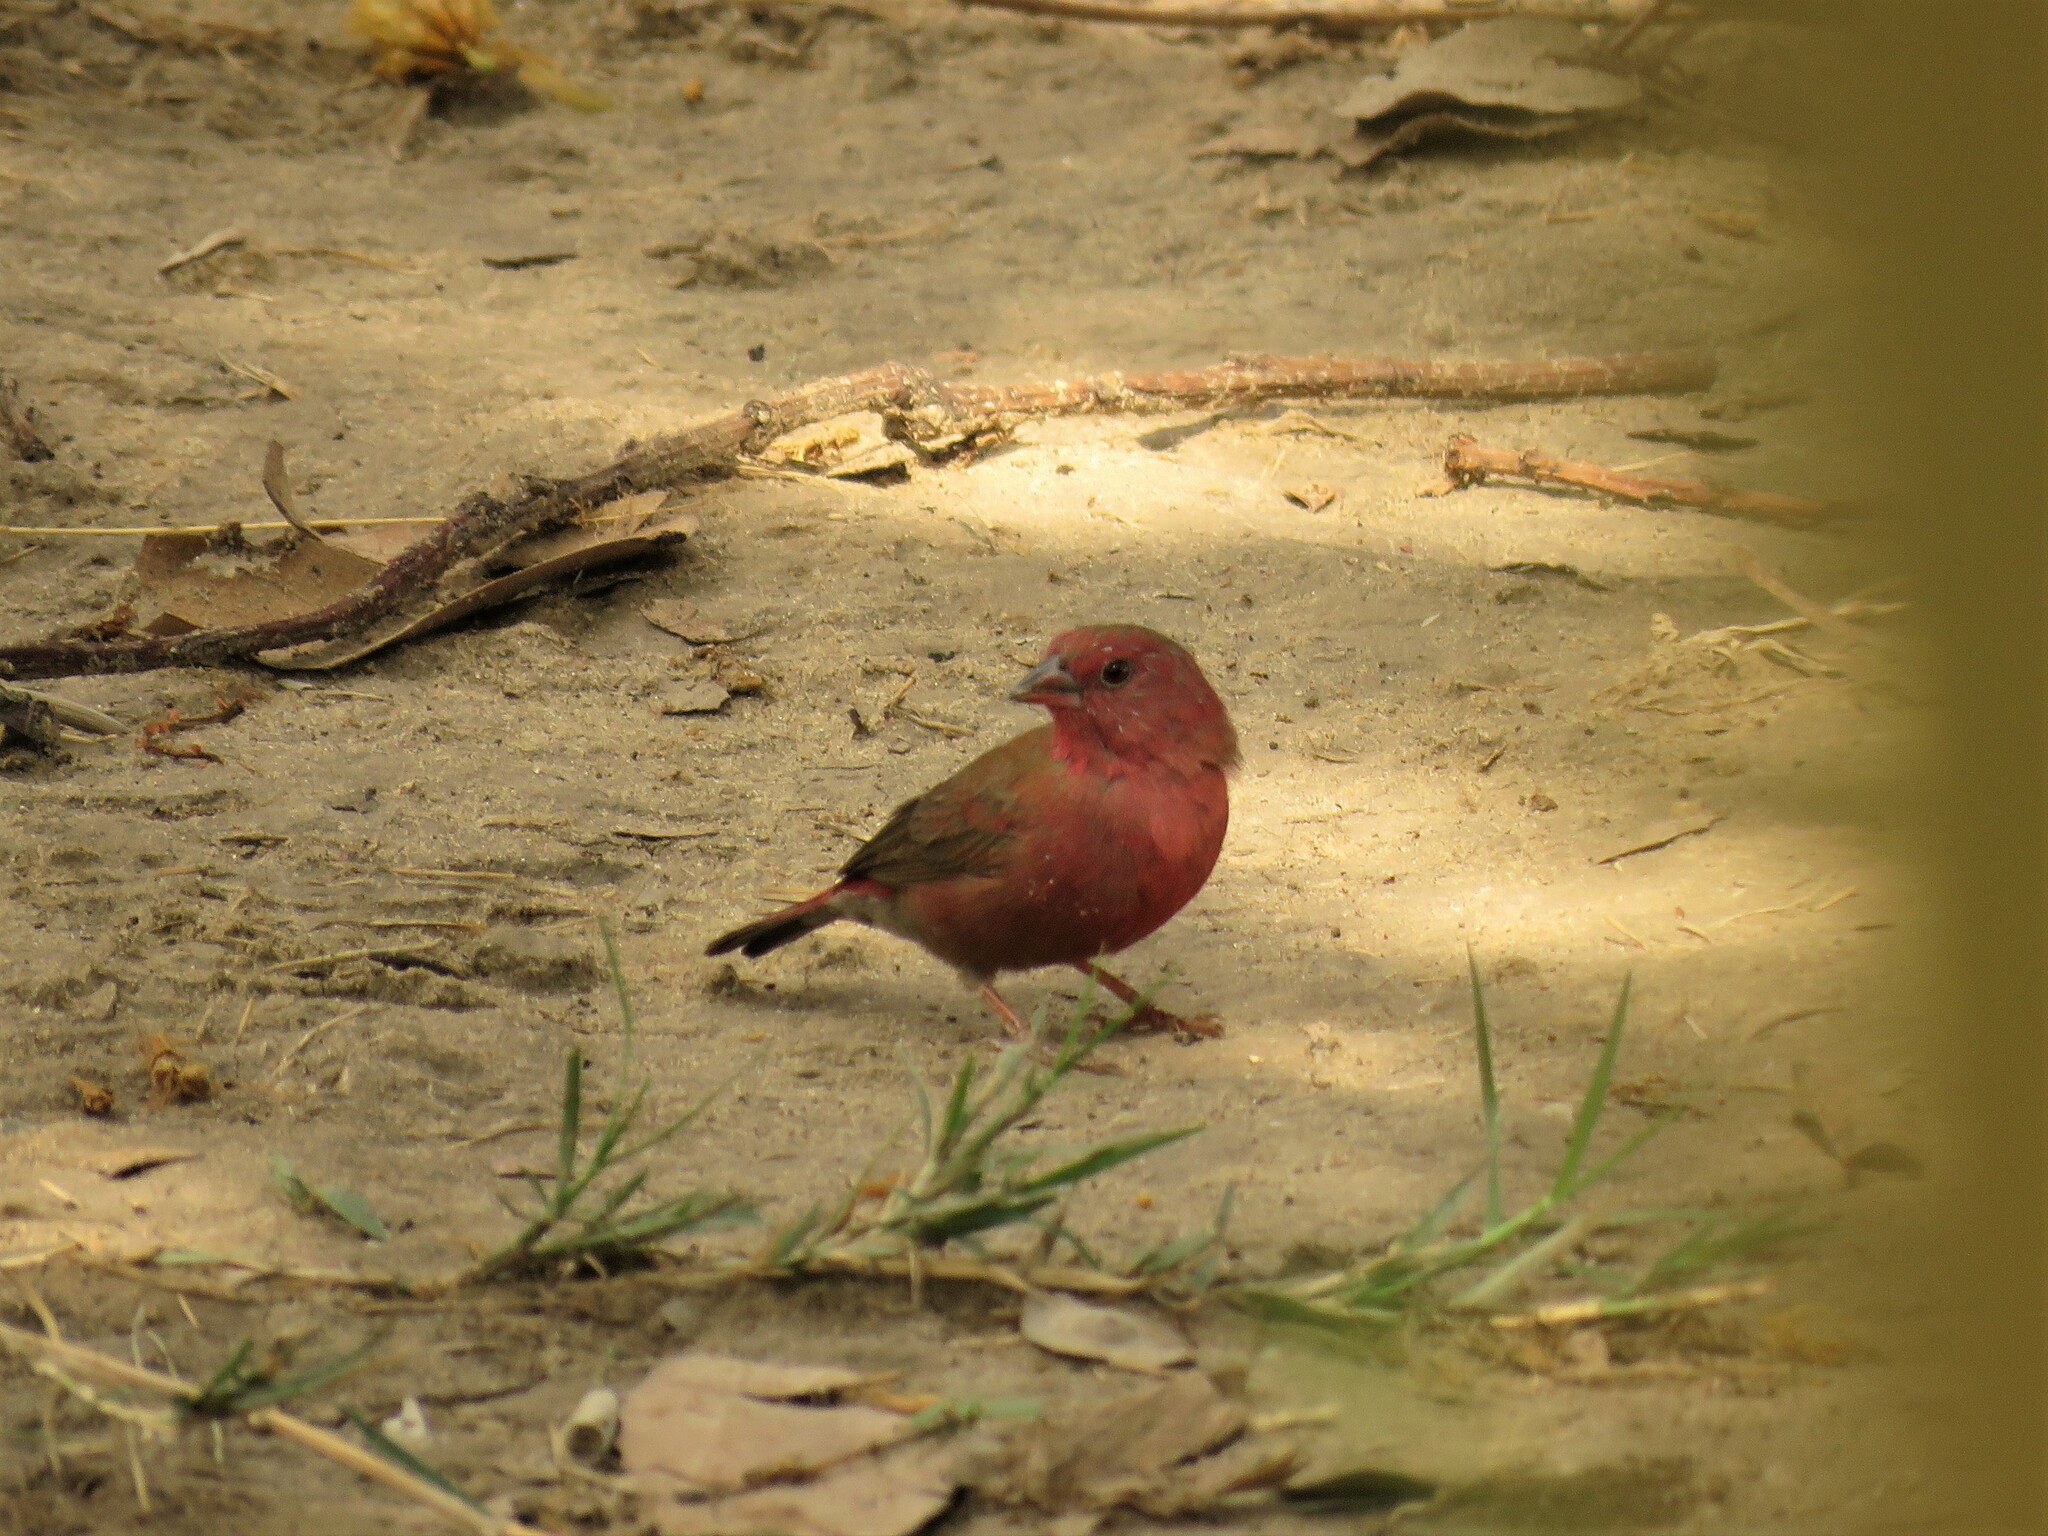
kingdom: Animalia
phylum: Chordata
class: Aves
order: Passeriformes
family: Estrildidae
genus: Lagonosticta
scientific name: Lagonosticta senegala
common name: Red-billed firefinch
